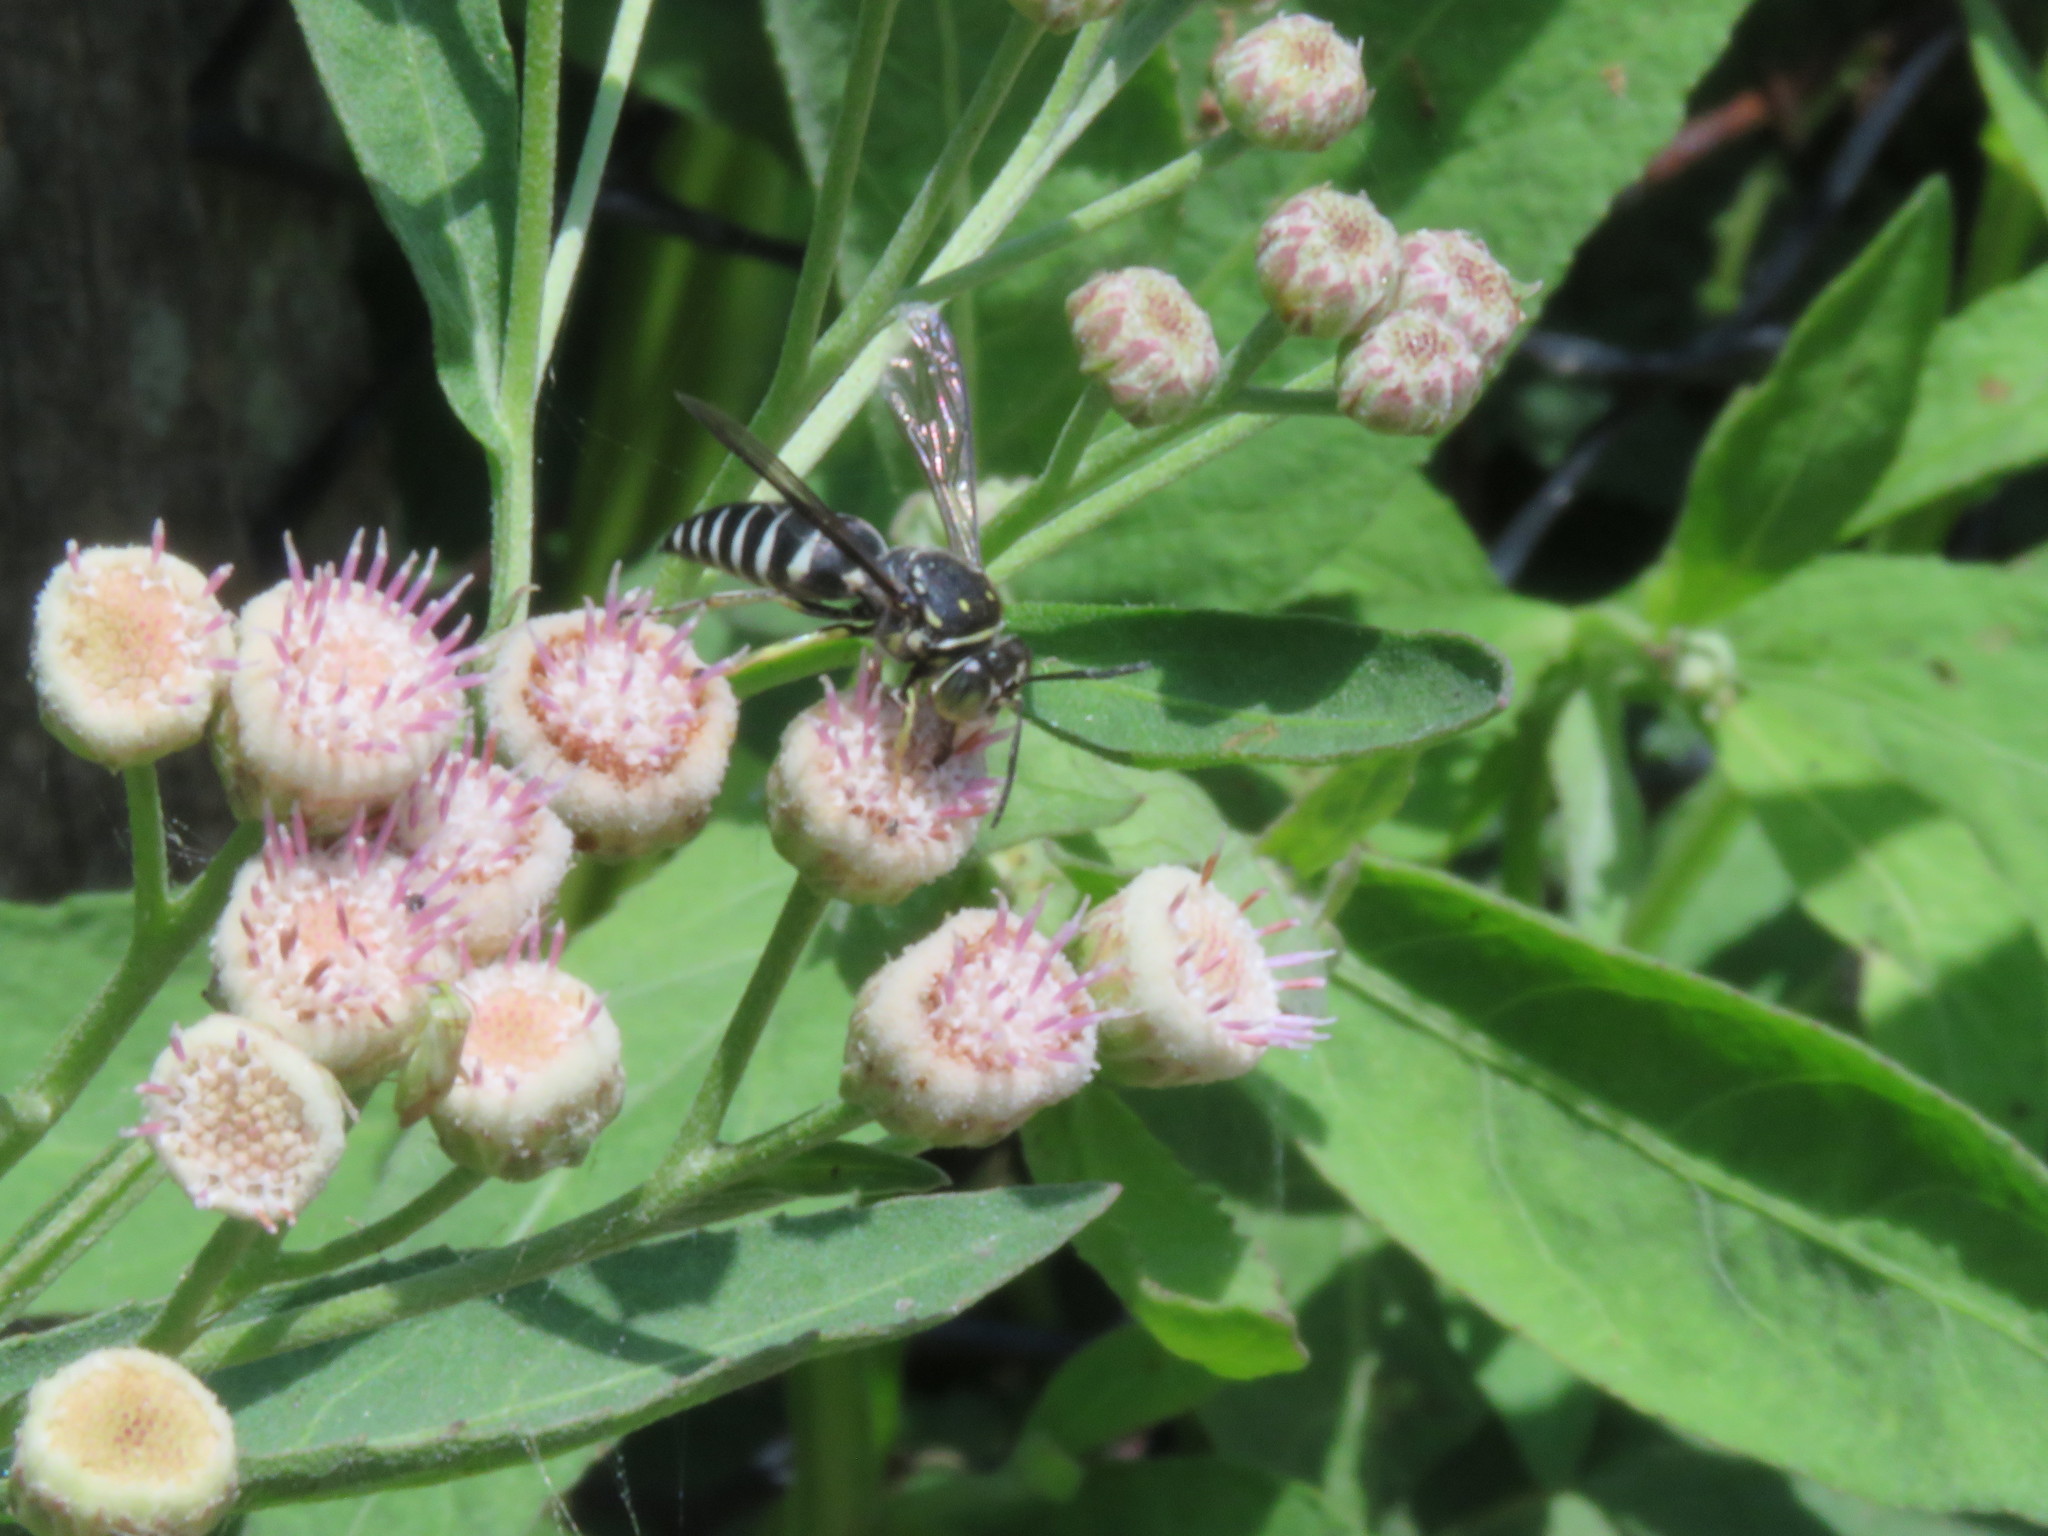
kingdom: Animalia
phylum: Arthropoda
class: Insecta
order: Hymenoptera
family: Crabronidae
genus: Bicyrtes
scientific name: Bicyrtes discisus
